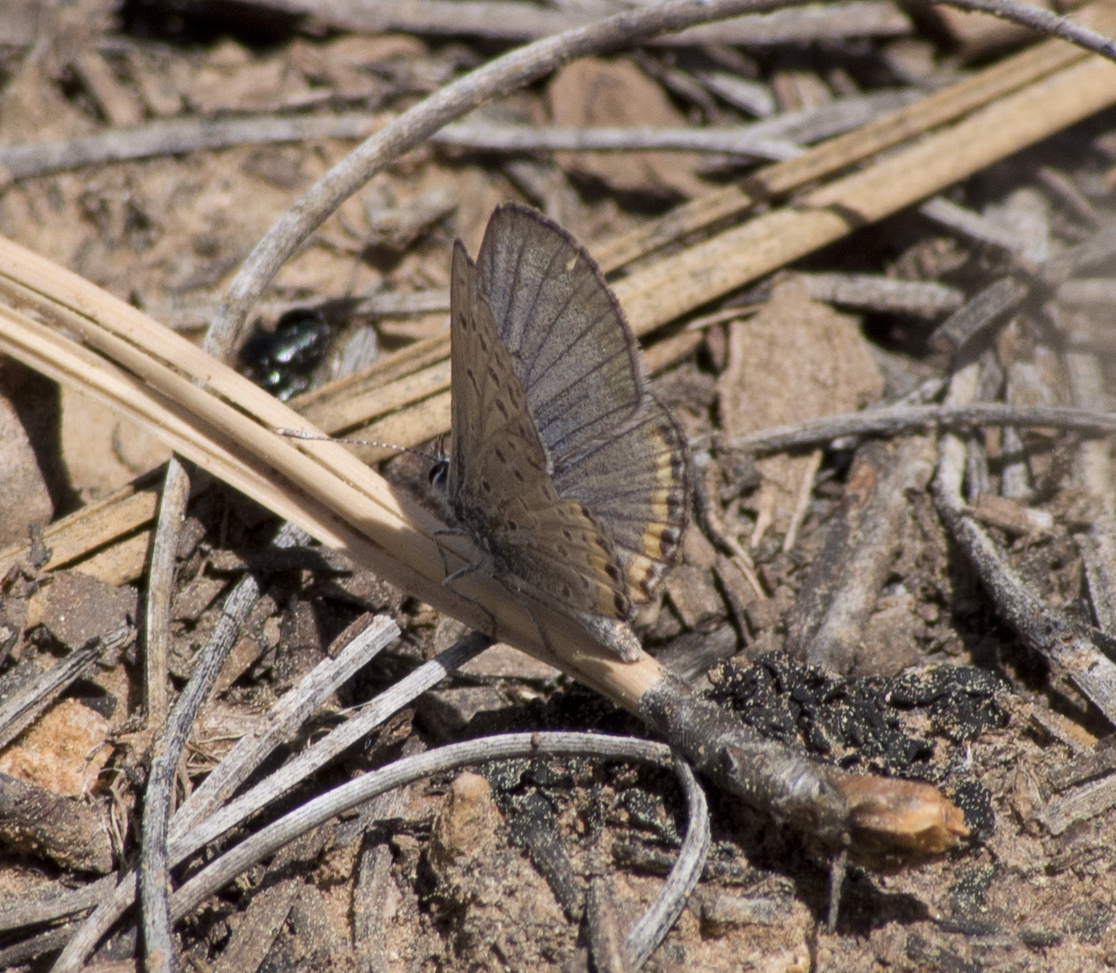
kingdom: Animalia
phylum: Arthropoda
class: Insecta
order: Lepidoptera
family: Lycaenidae
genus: Icaricia
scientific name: Icaricia lupini
